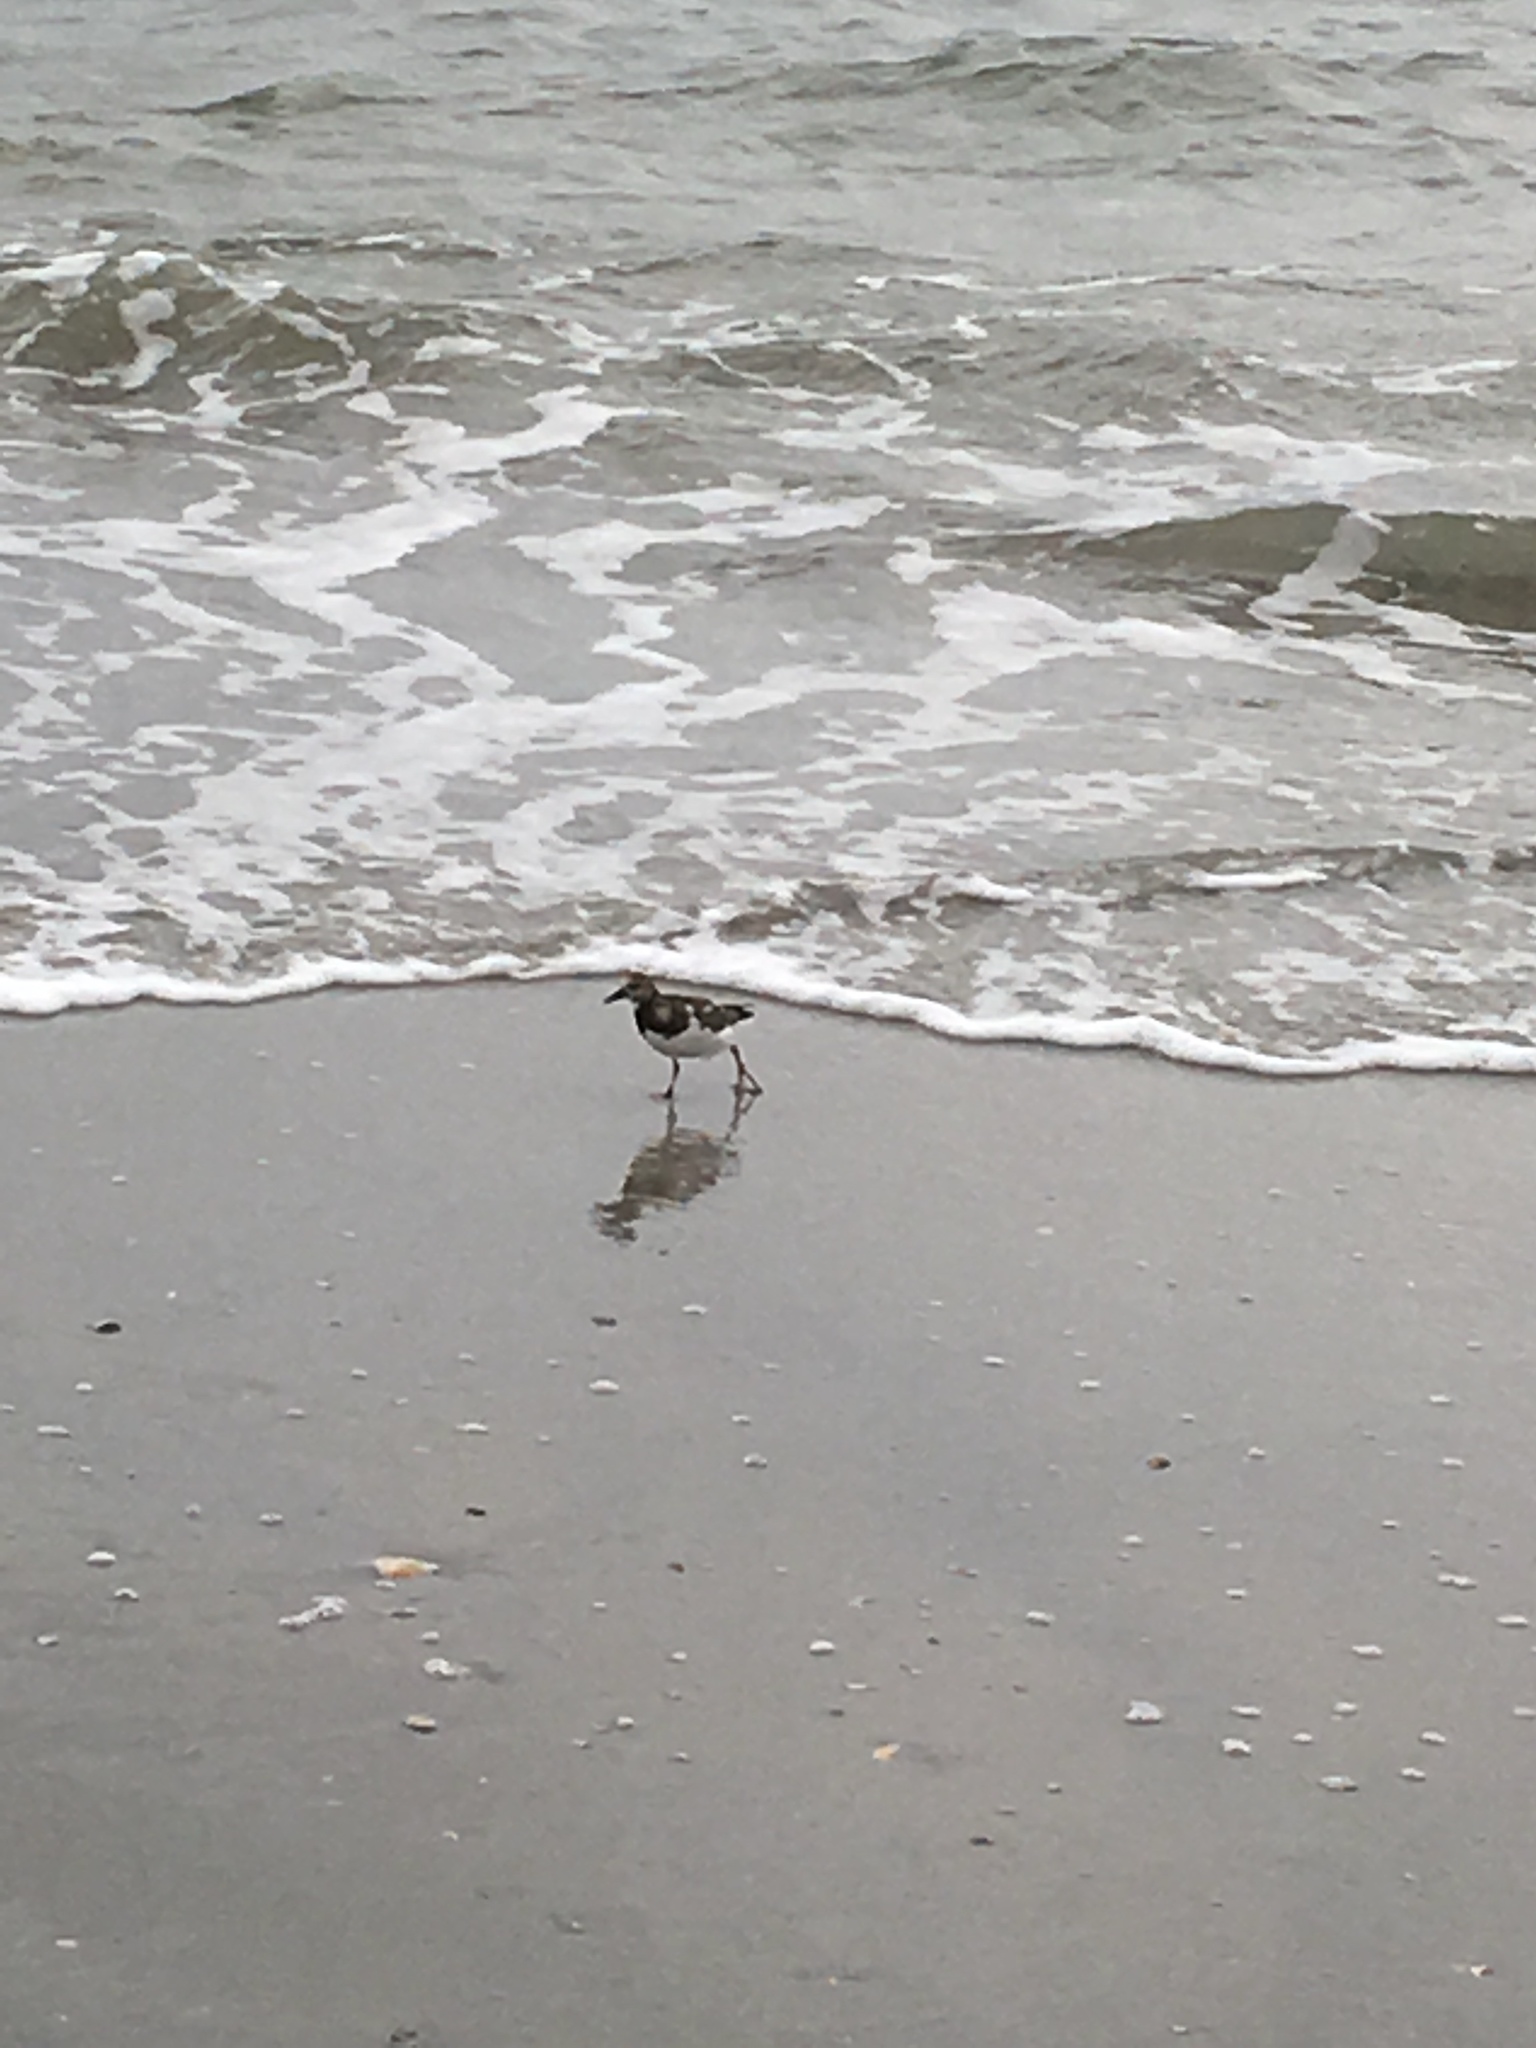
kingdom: Animalia
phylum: Chordata
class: Aves
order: Charadriiformes
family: Scolopacidae
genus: Arenaria
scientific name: Arenaria interpres
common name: Ruddy turnstone
